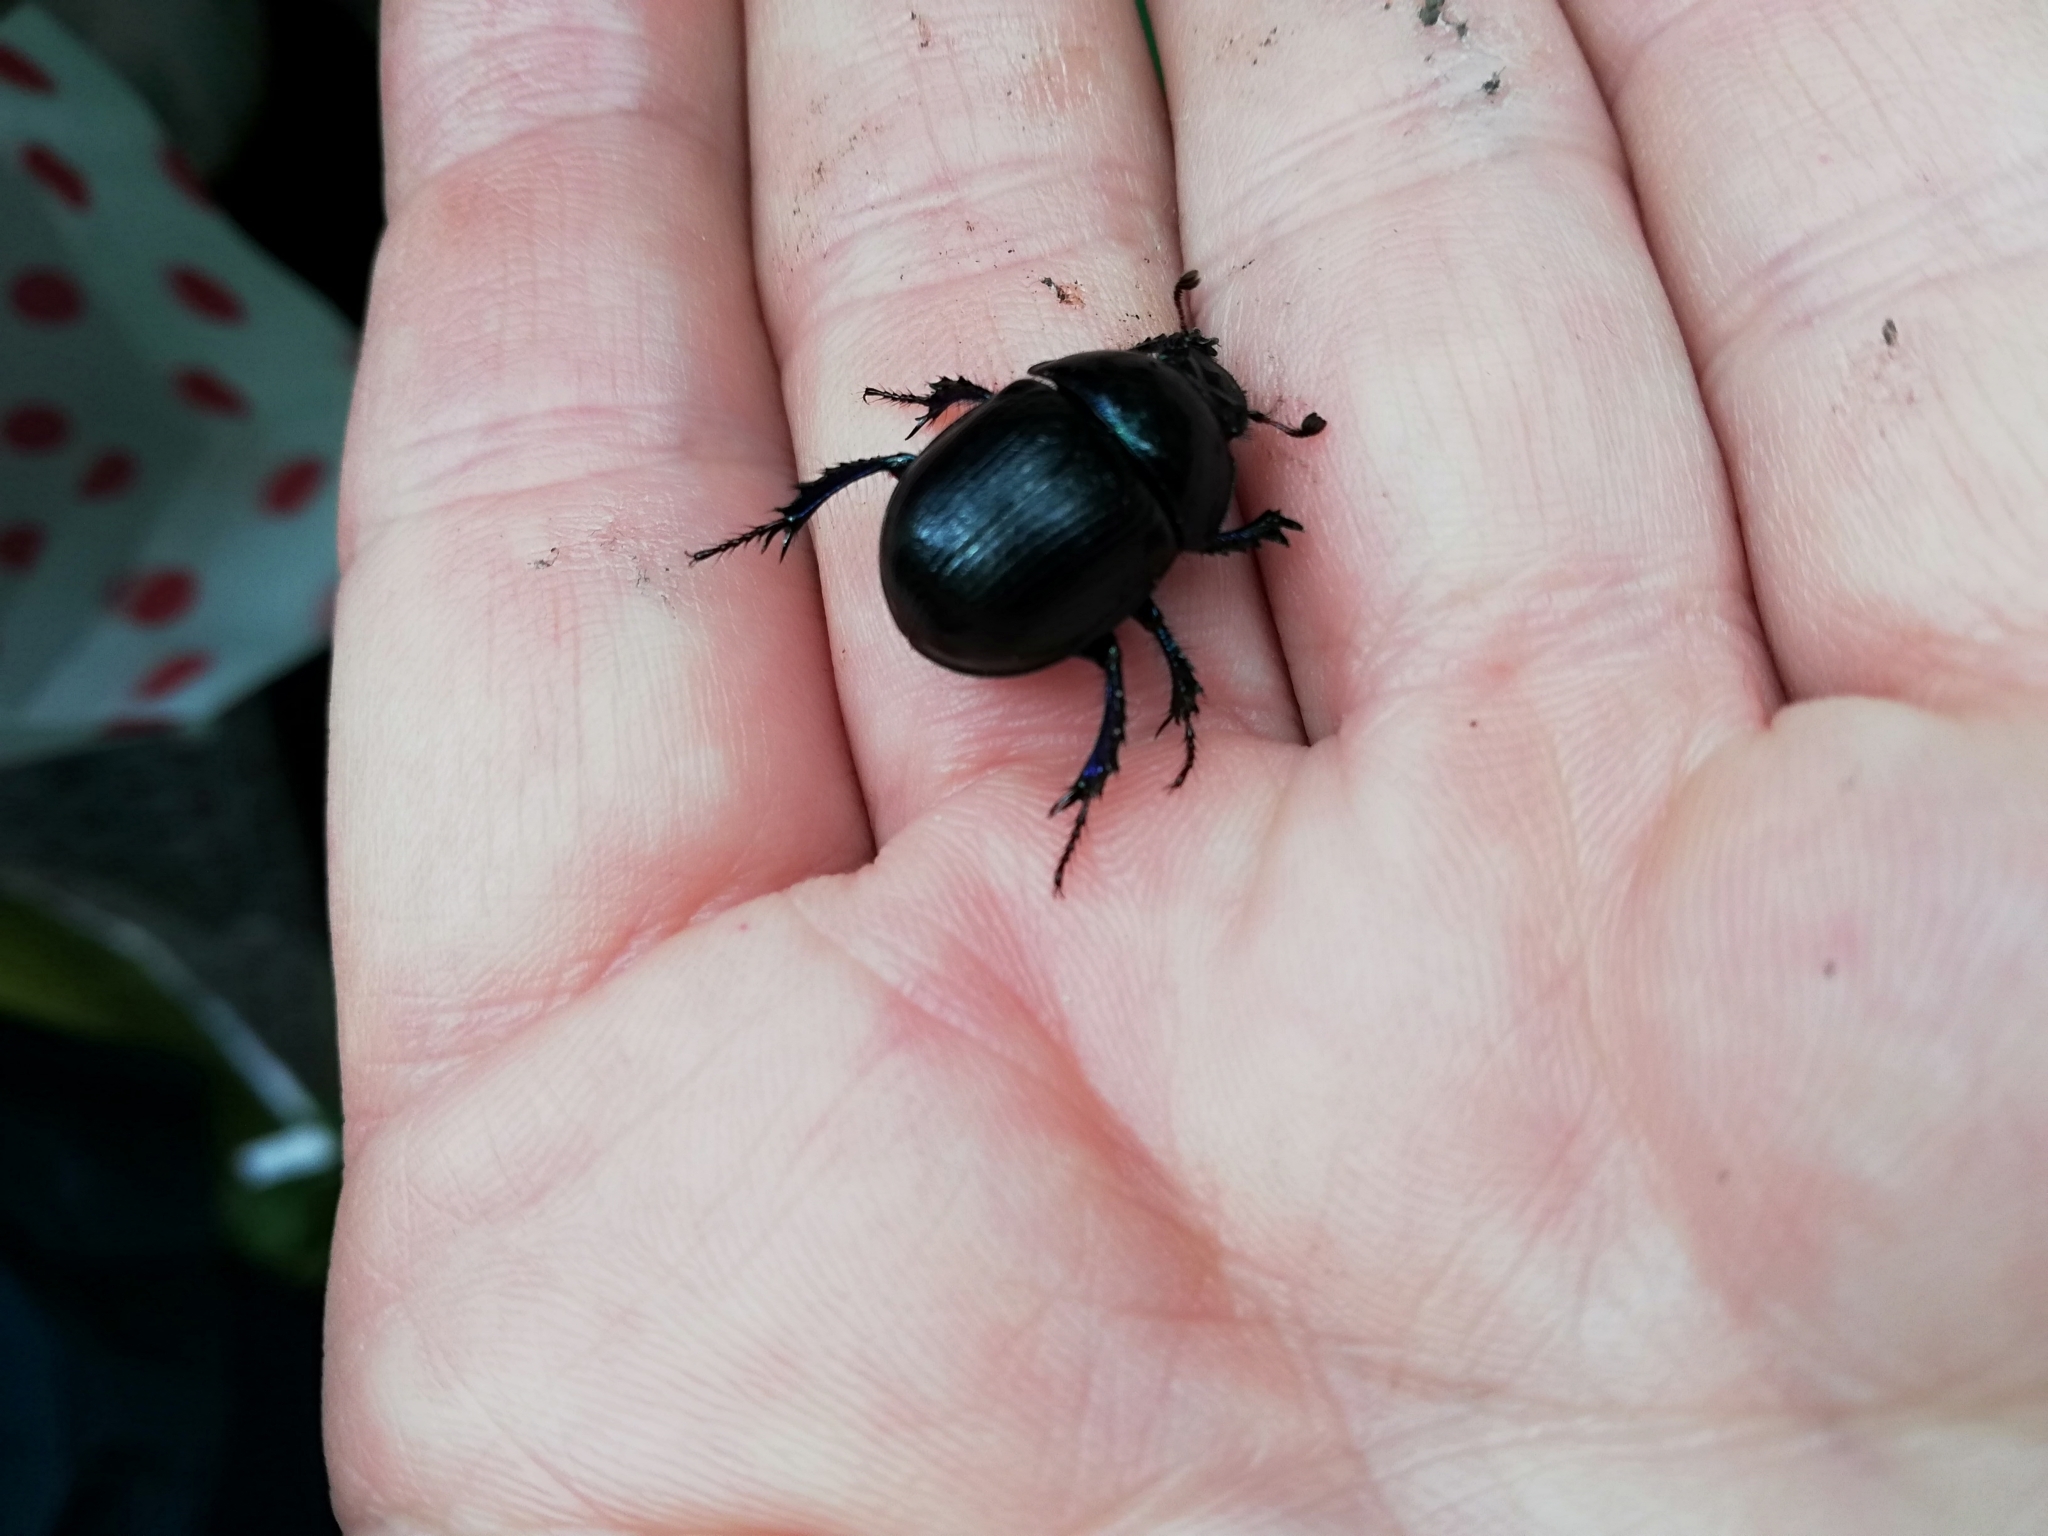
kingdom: Animalia
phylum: Arthropoda
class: Insecta
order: Coleoptera
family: Geotrupidae
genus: Anoplotrupes
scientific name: Anoplotrupes stercorosus
